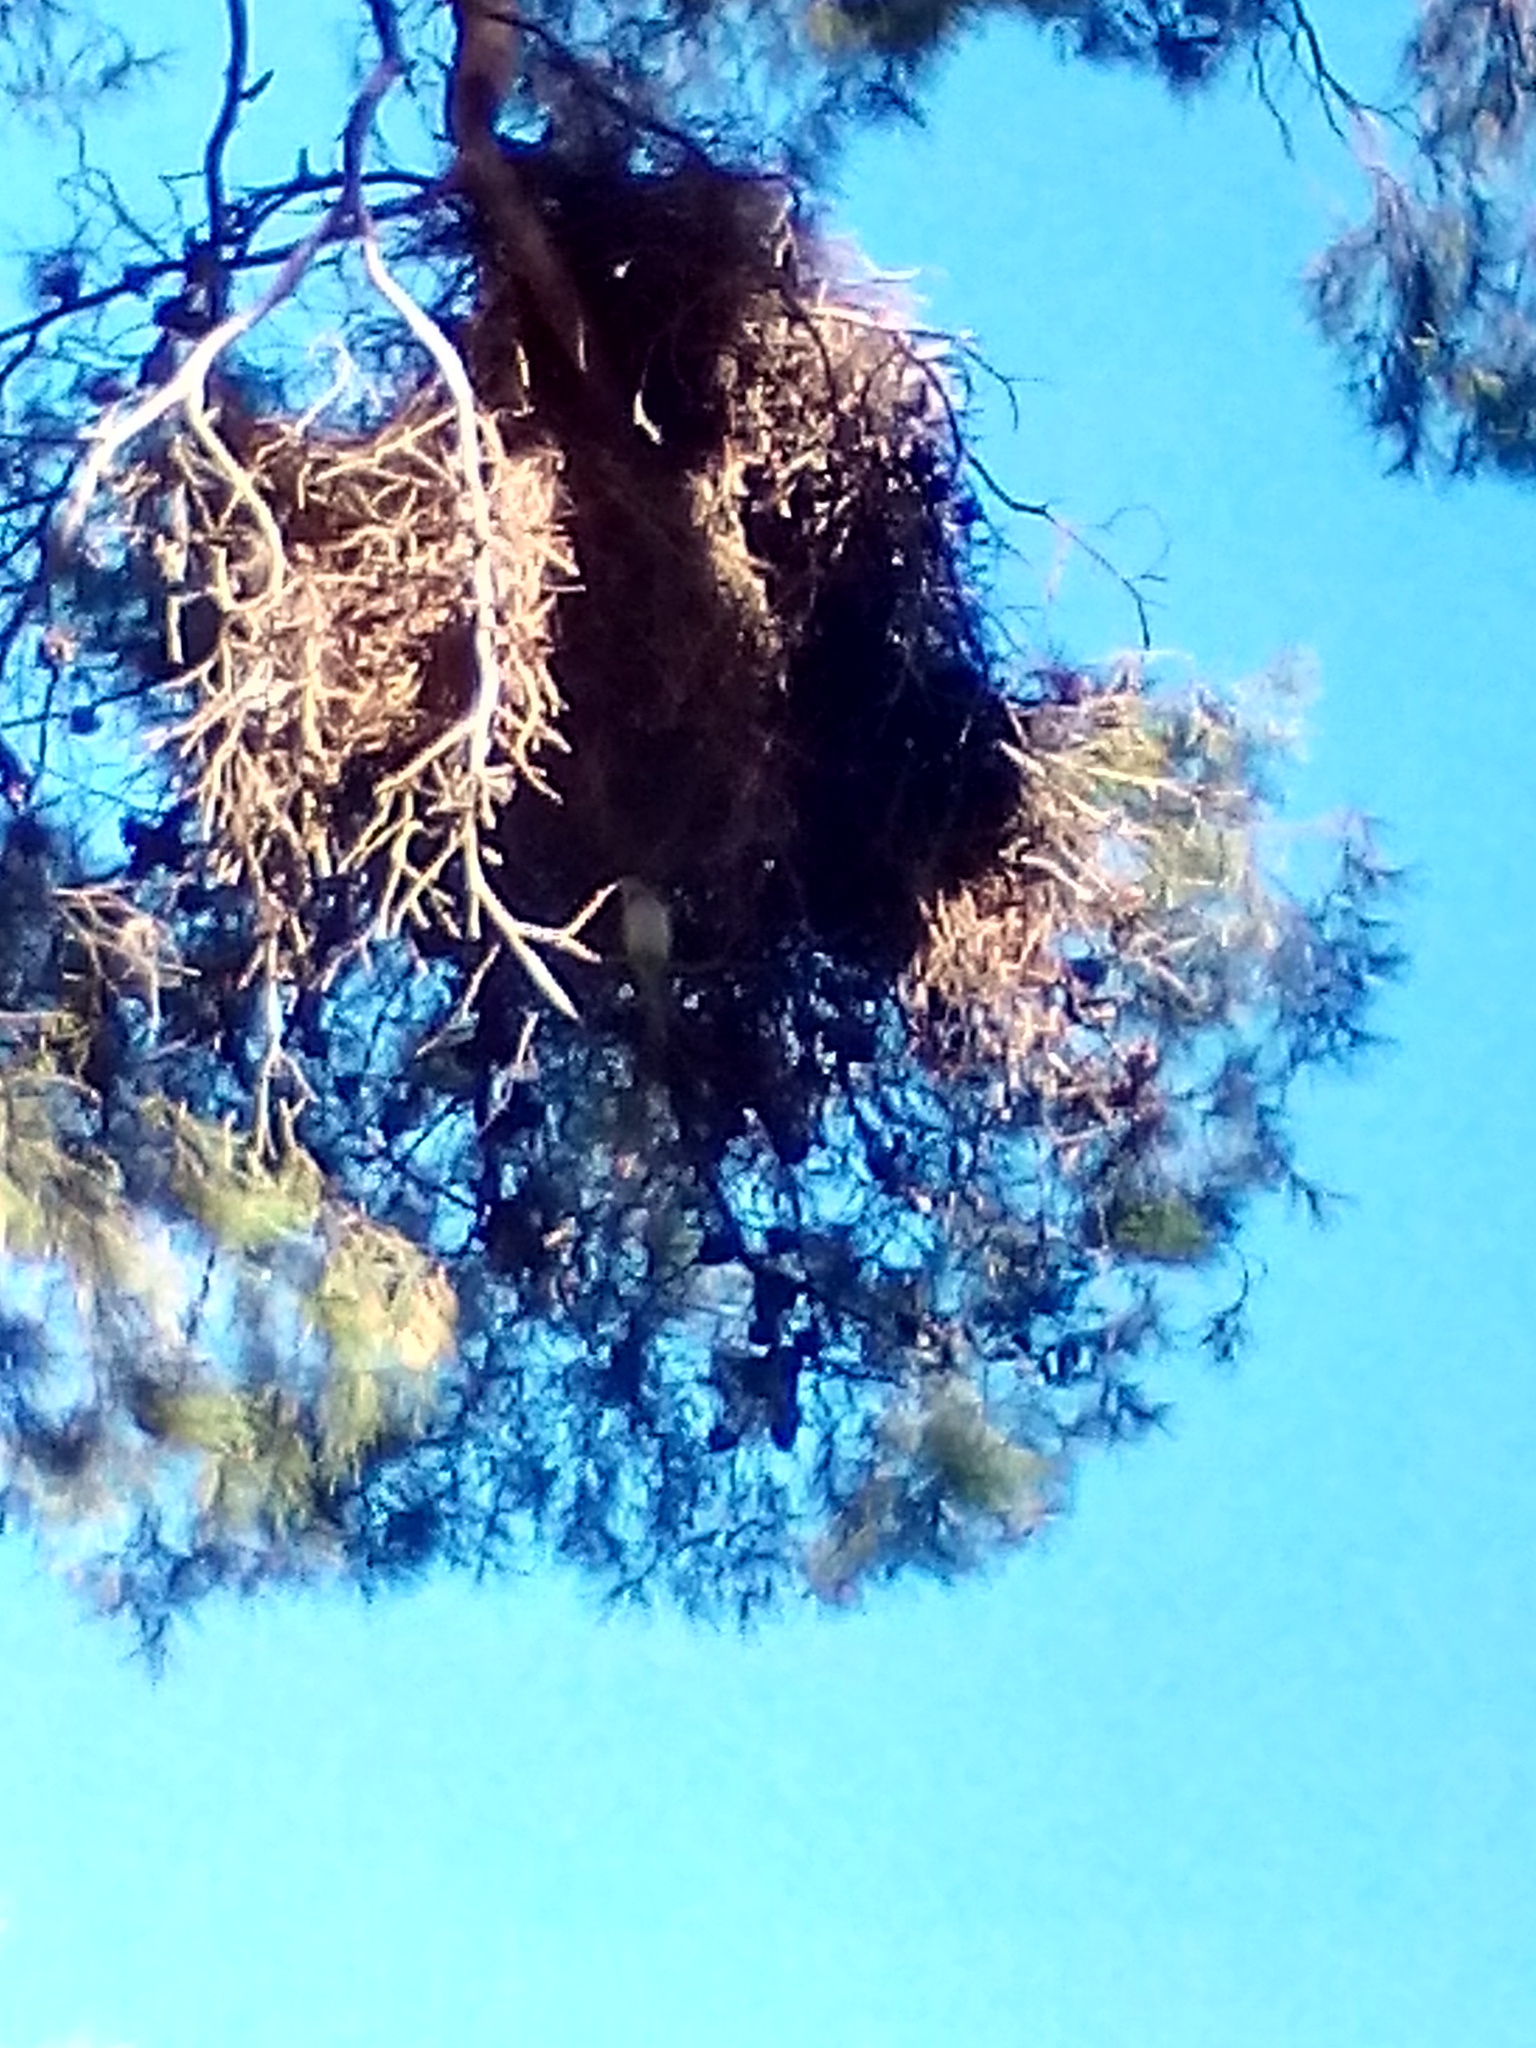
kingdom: Animalia
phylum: Chordata
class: Aves
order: Psittaciformes
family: Psittacidae
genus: Myiopsitta
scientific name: Myiopsitta monachus
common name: Monk parakeet
